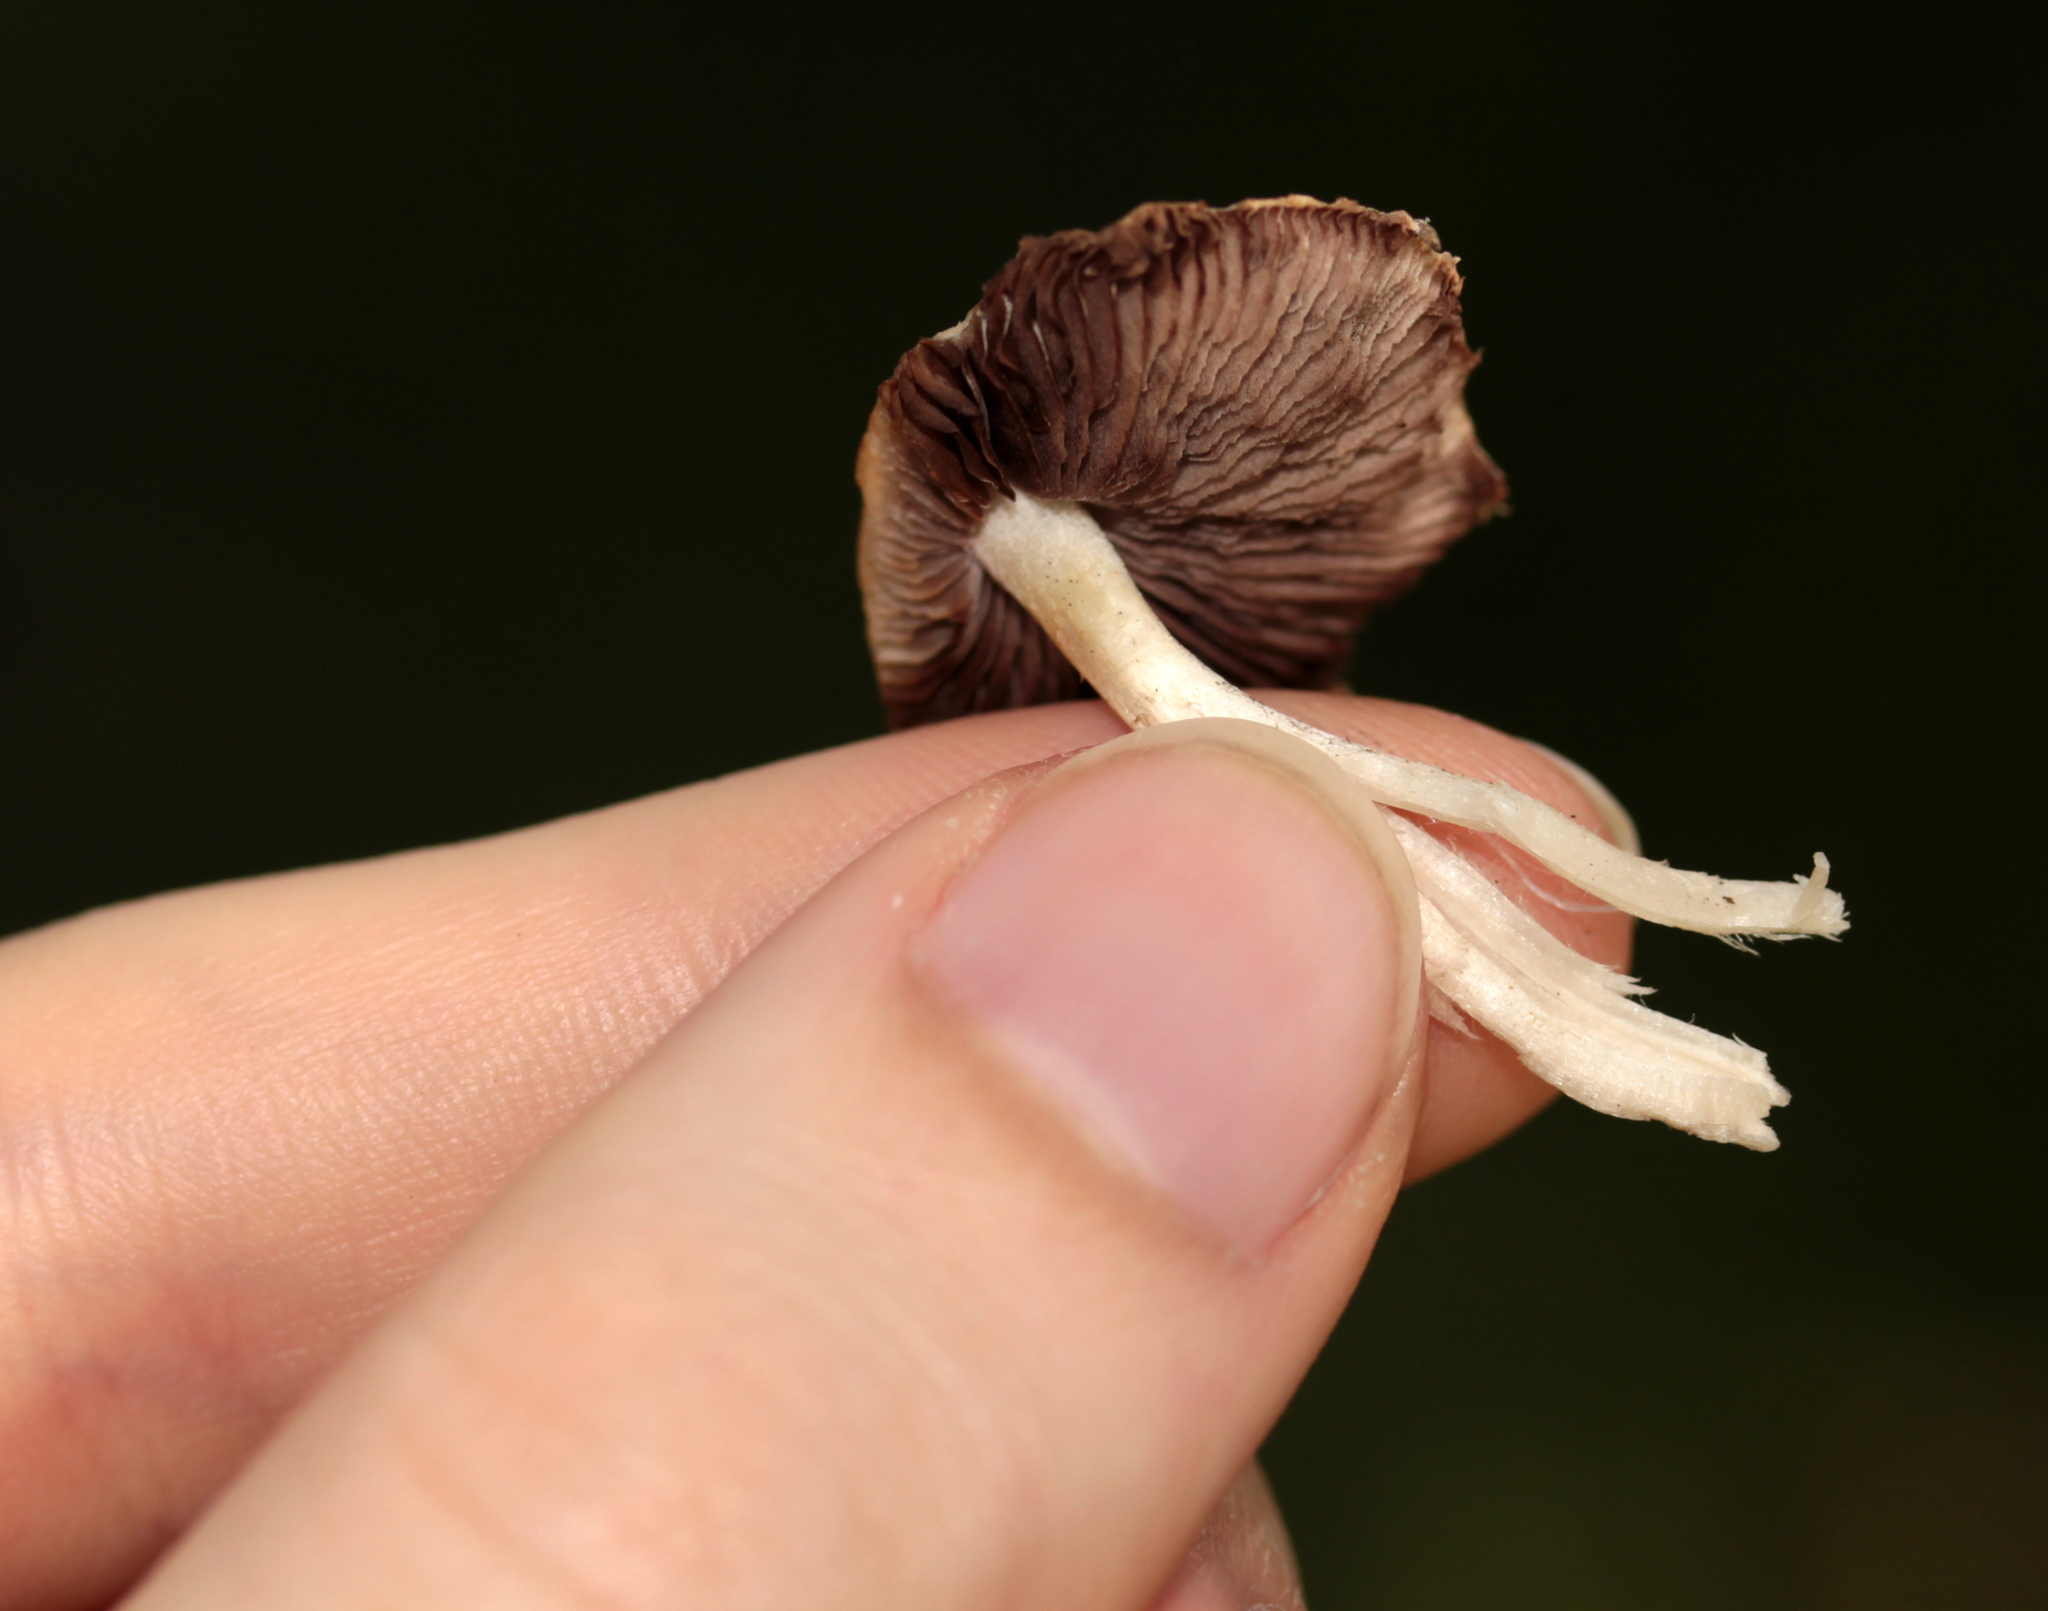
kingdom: Fungi
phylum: Basidiomycota
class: Agaricomycetes
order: Agaricales
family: Psathyrellaceae
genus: Candolleomyces
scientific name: Candolleomyces candolleanus
